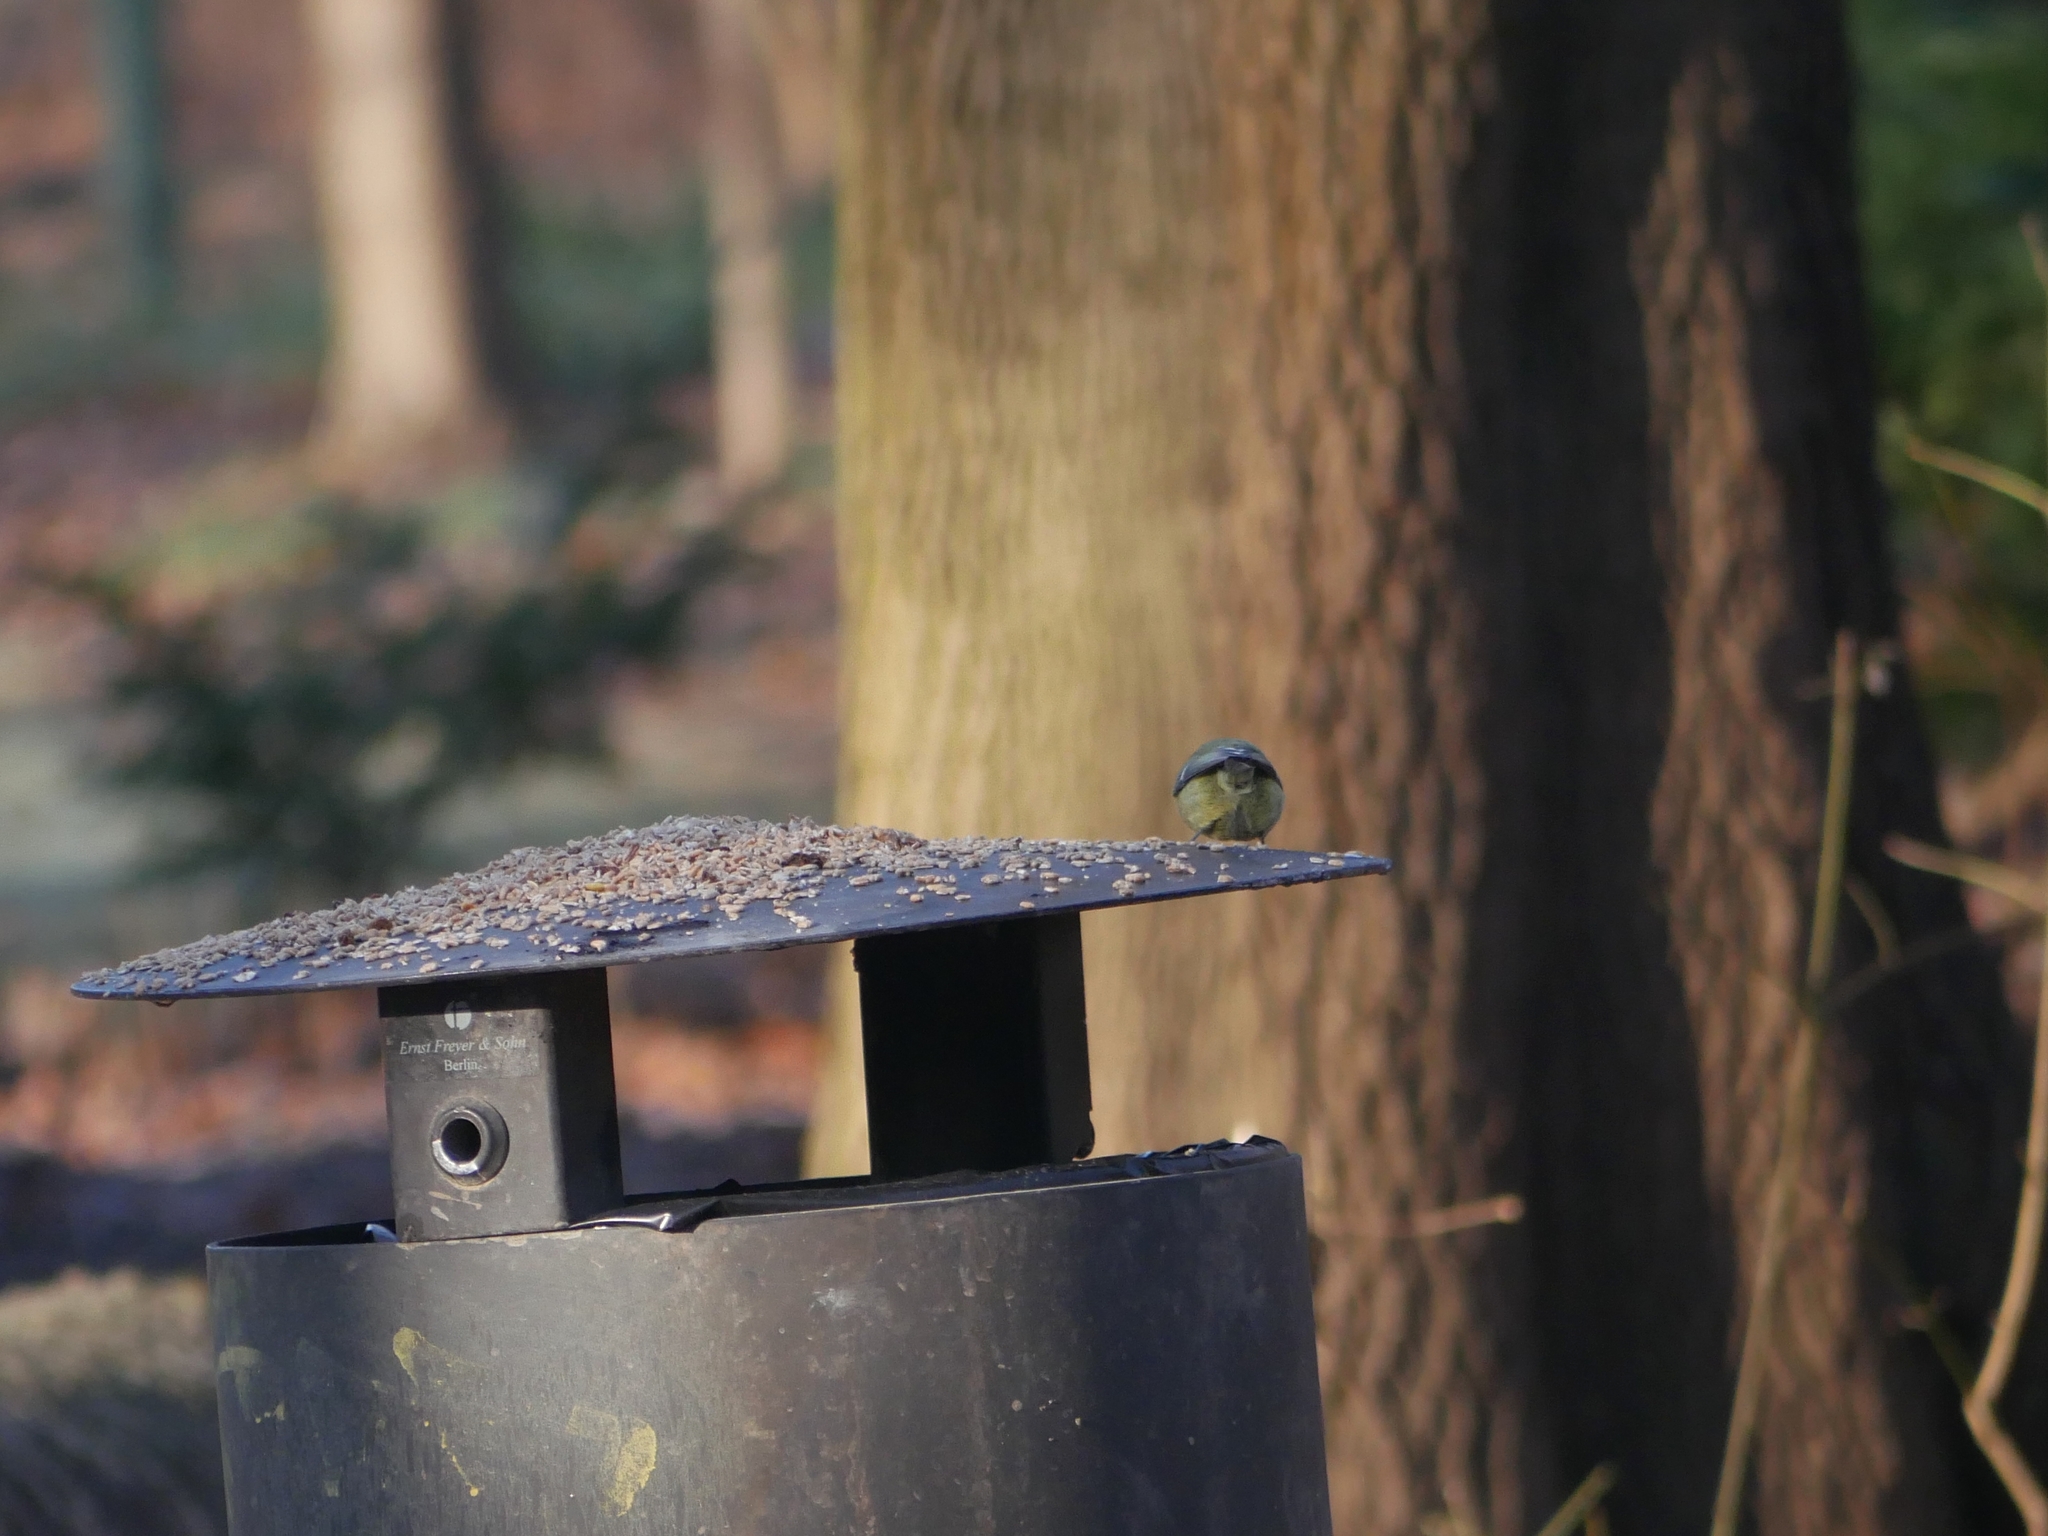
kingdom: Animalia
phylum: Chordata
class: Aves
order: Passeriformes
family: Paridae
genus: Cyanistes
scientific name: Cyanistes caeruleus
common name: Eurasian blue tit
